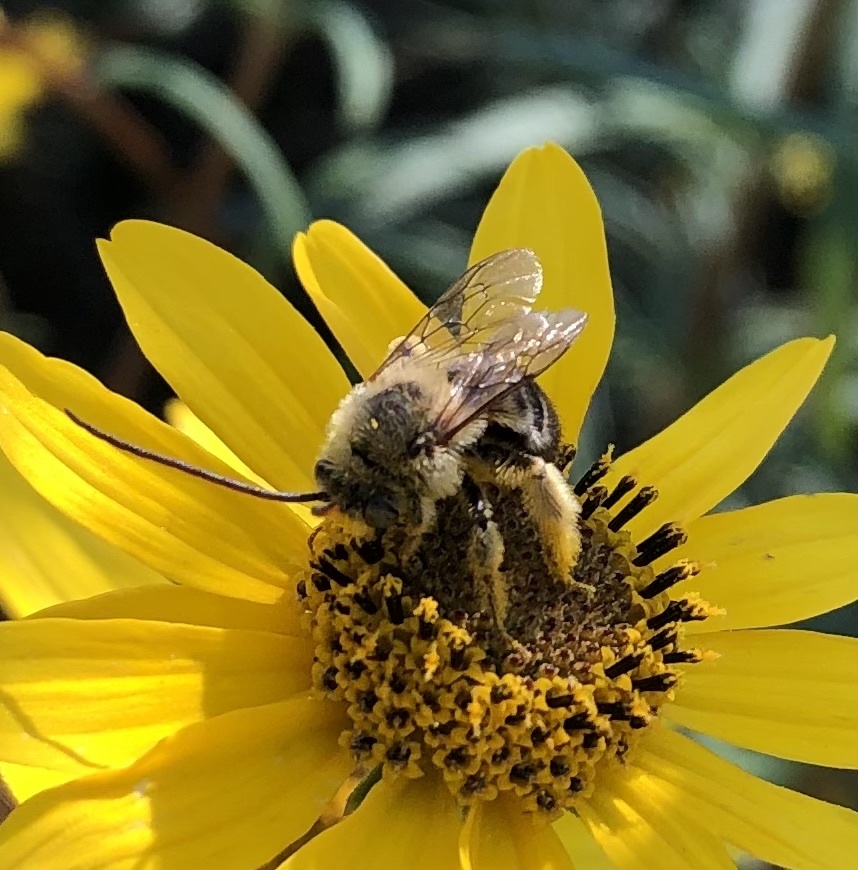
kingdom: Animalia
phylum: Arthropoda
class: Insecta
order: Hymenoptera
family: Apidae
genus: Melissodes
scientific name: Melissodes dentiventris
